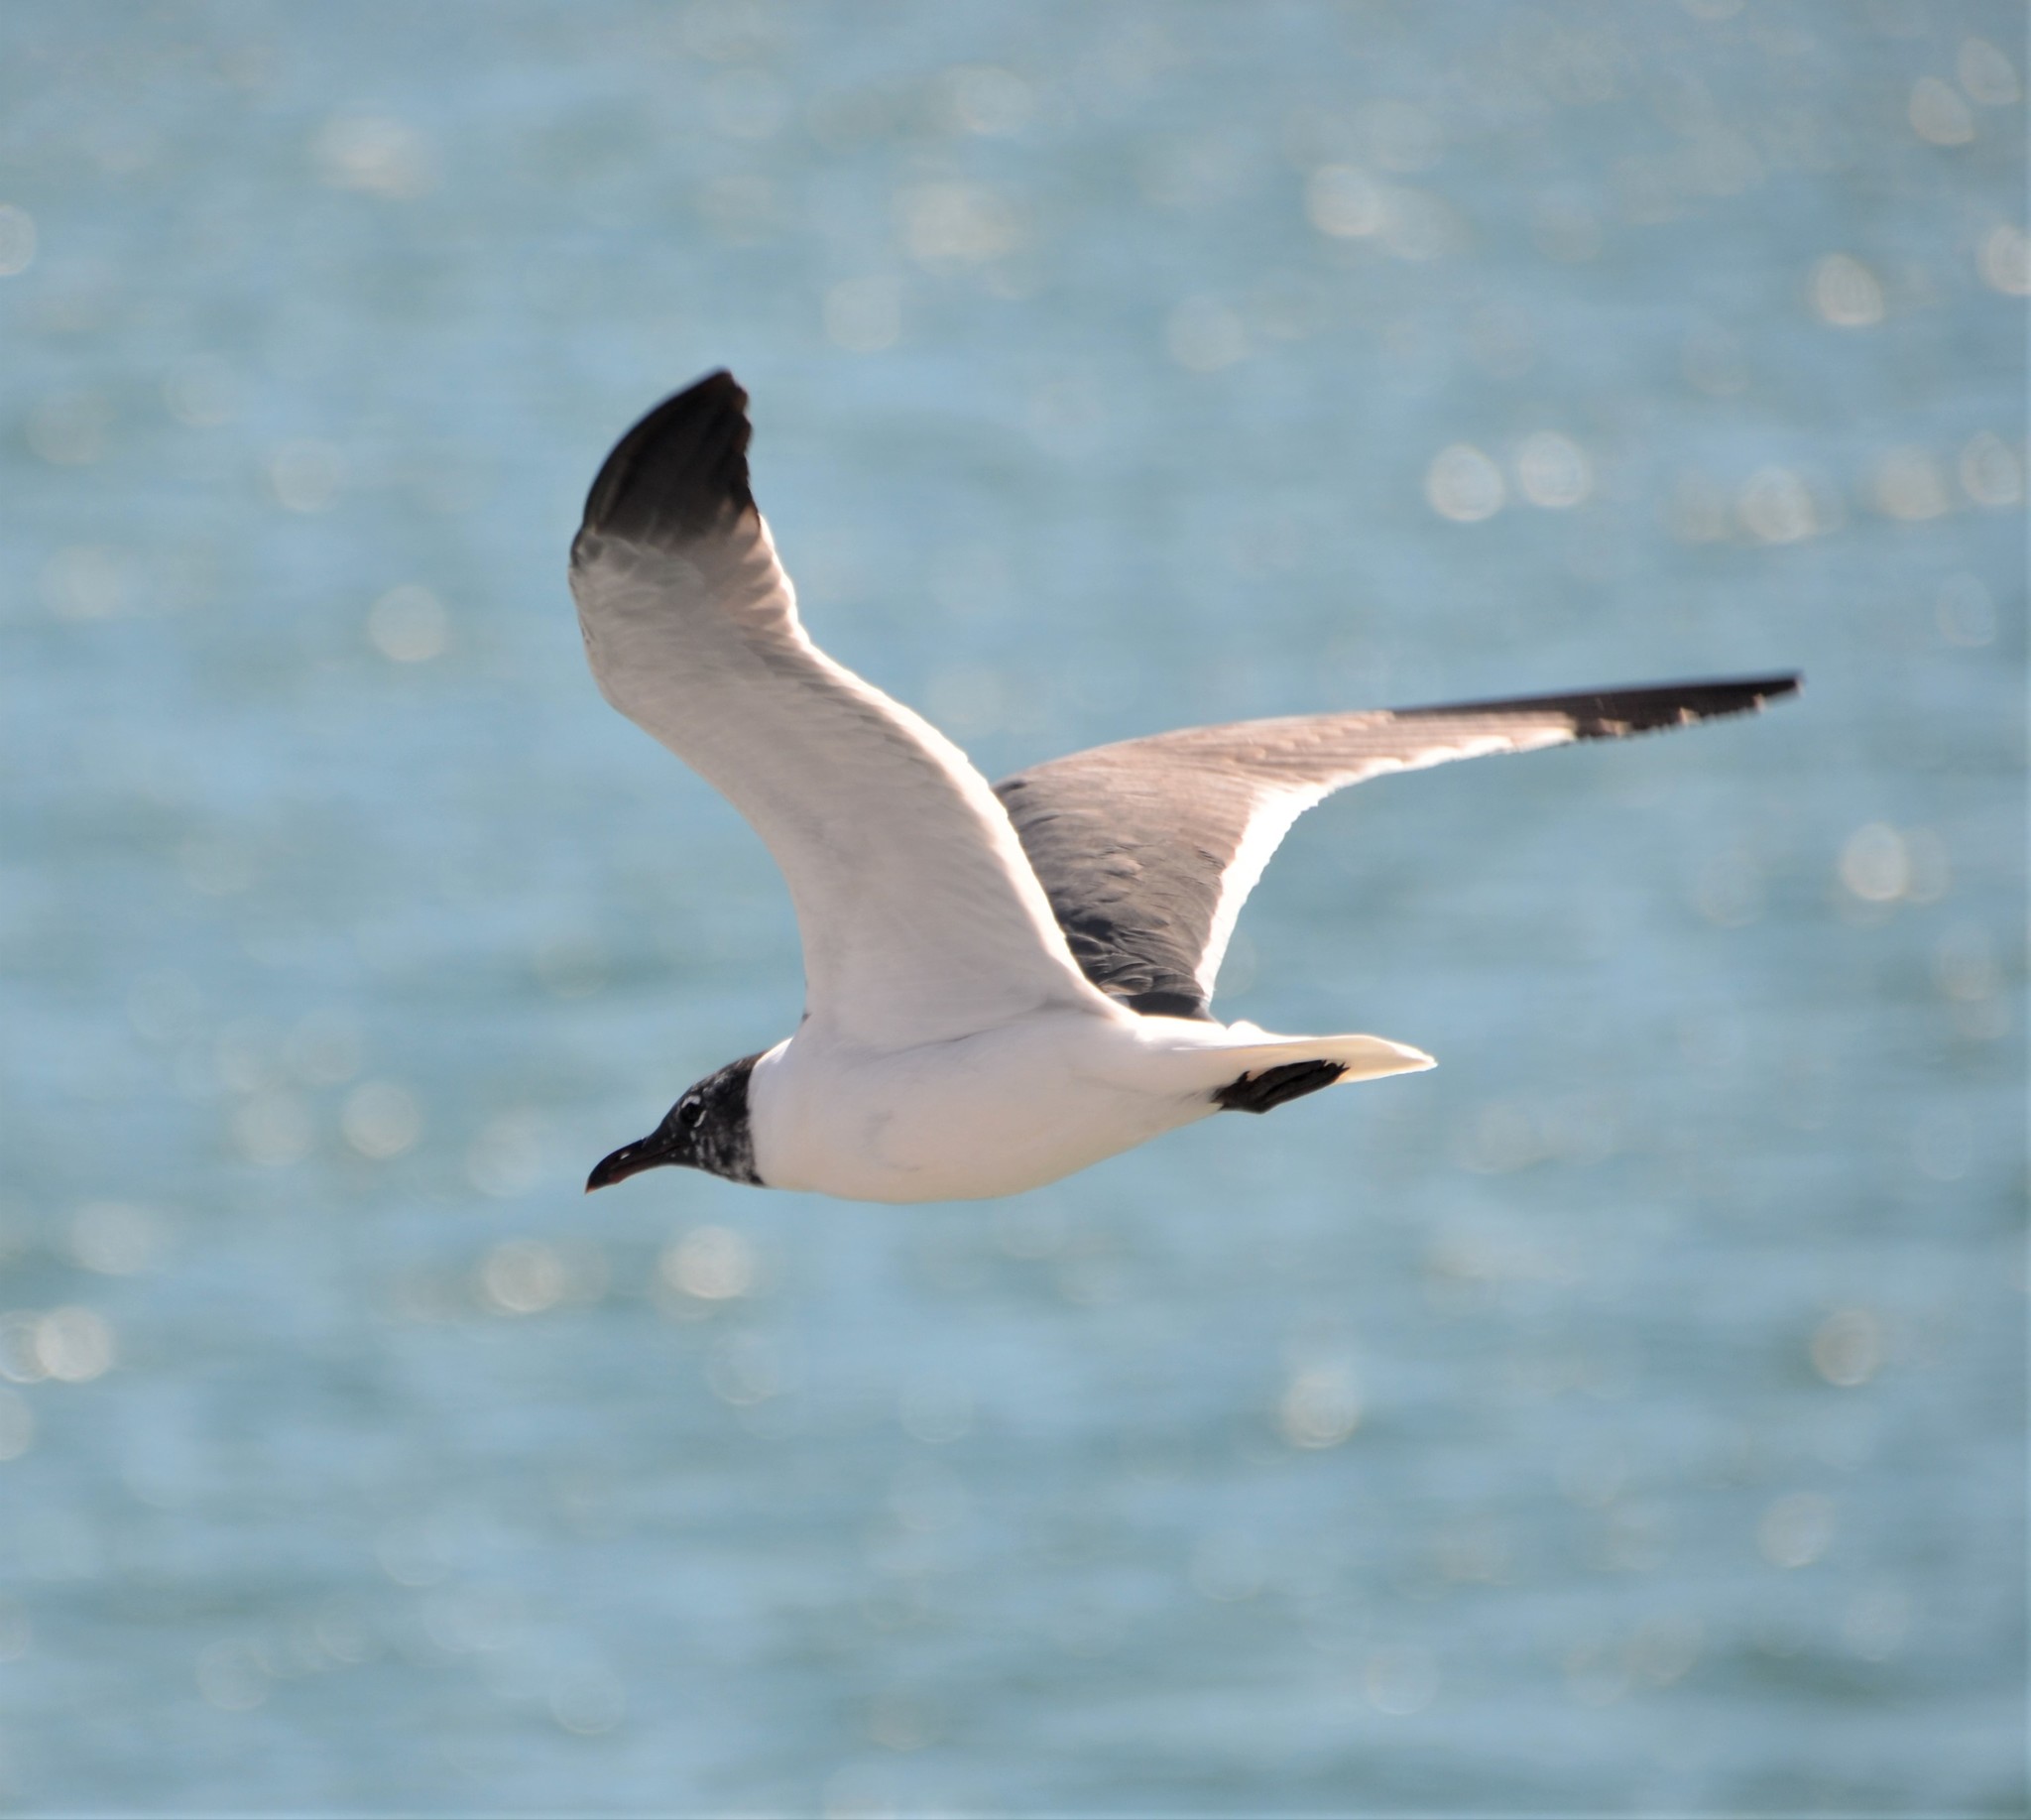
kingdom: Animalia
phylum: Chordata
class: Aves
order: Charadriiformes
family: Laridae
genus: Leucophaeus
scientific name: Leucophaeus atricilla
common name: Laughing gull
